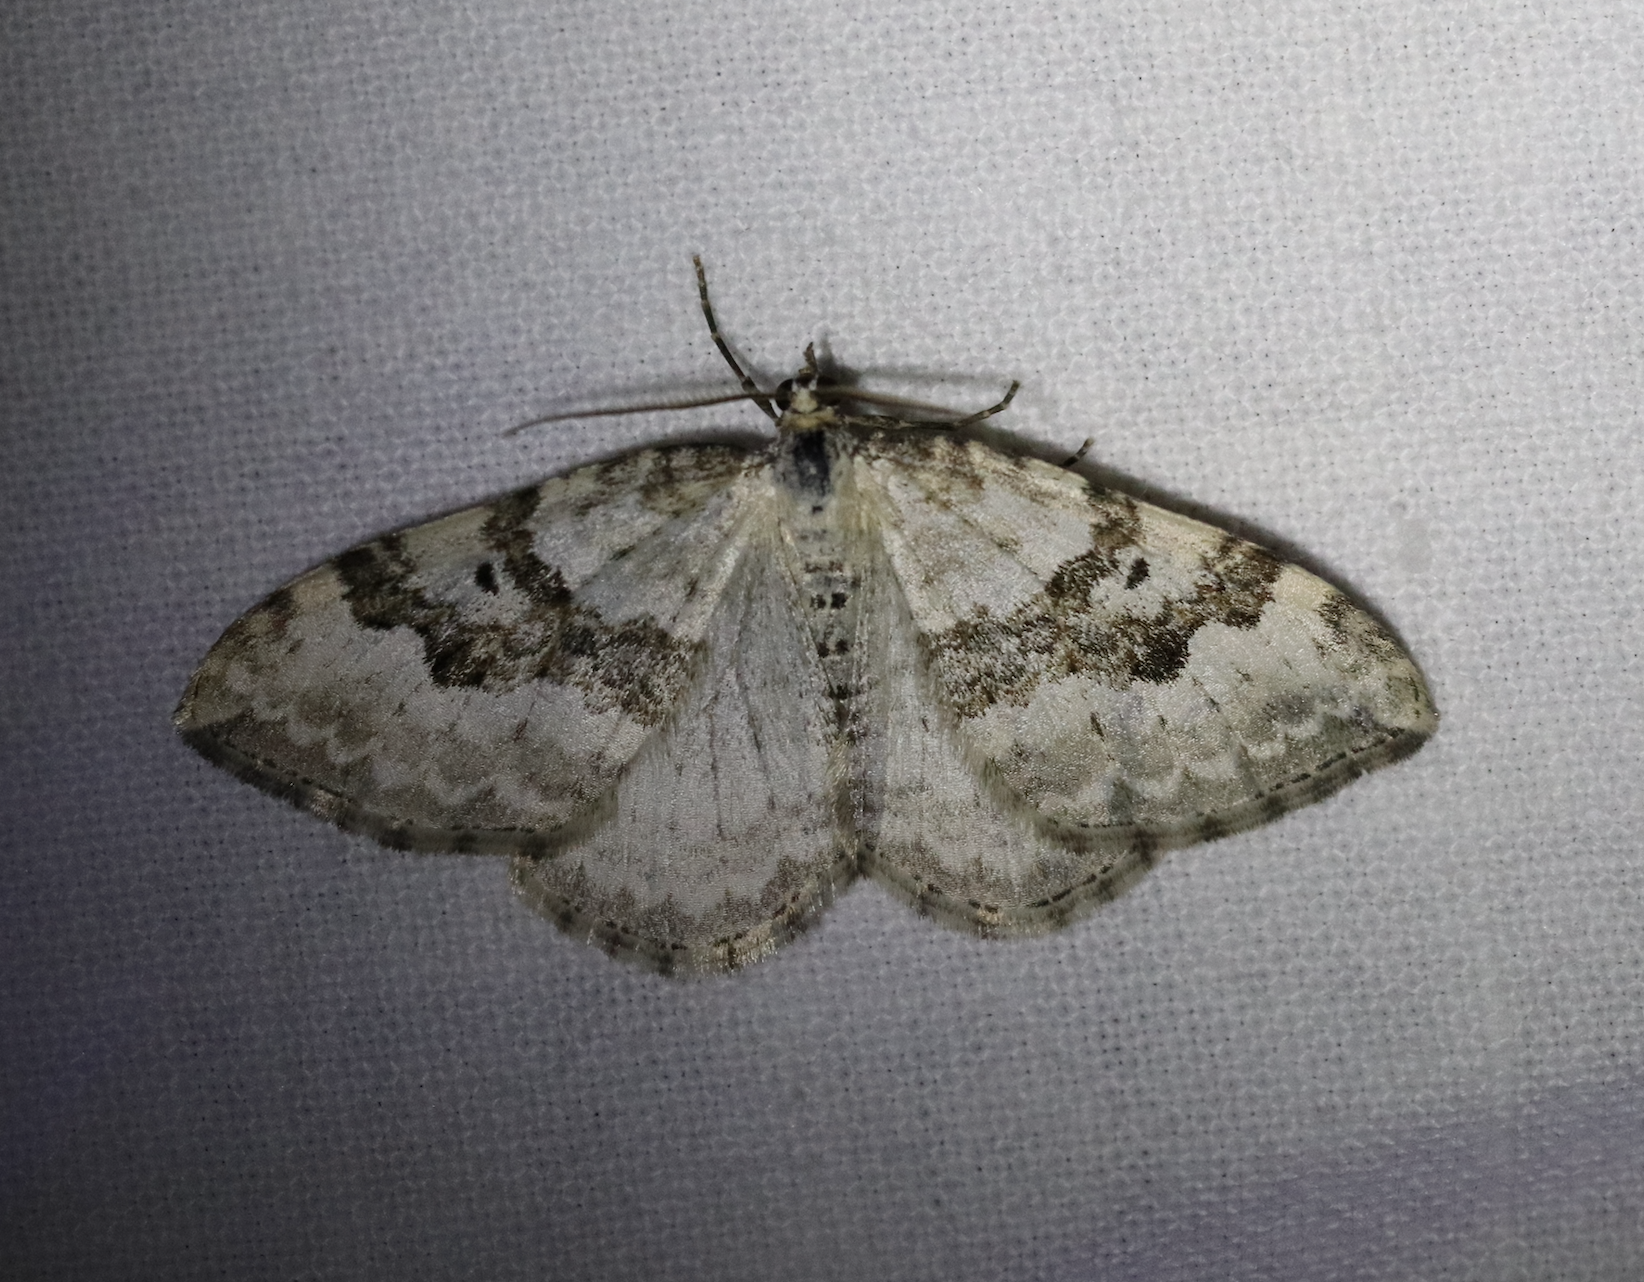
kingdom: Animalia
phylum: Arthropoda
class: Insecta
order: Lepidoptera
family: Geometridae
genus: Xanthorhoe
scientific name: Xanthorhoe montanata
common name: Silver-ground carpet
